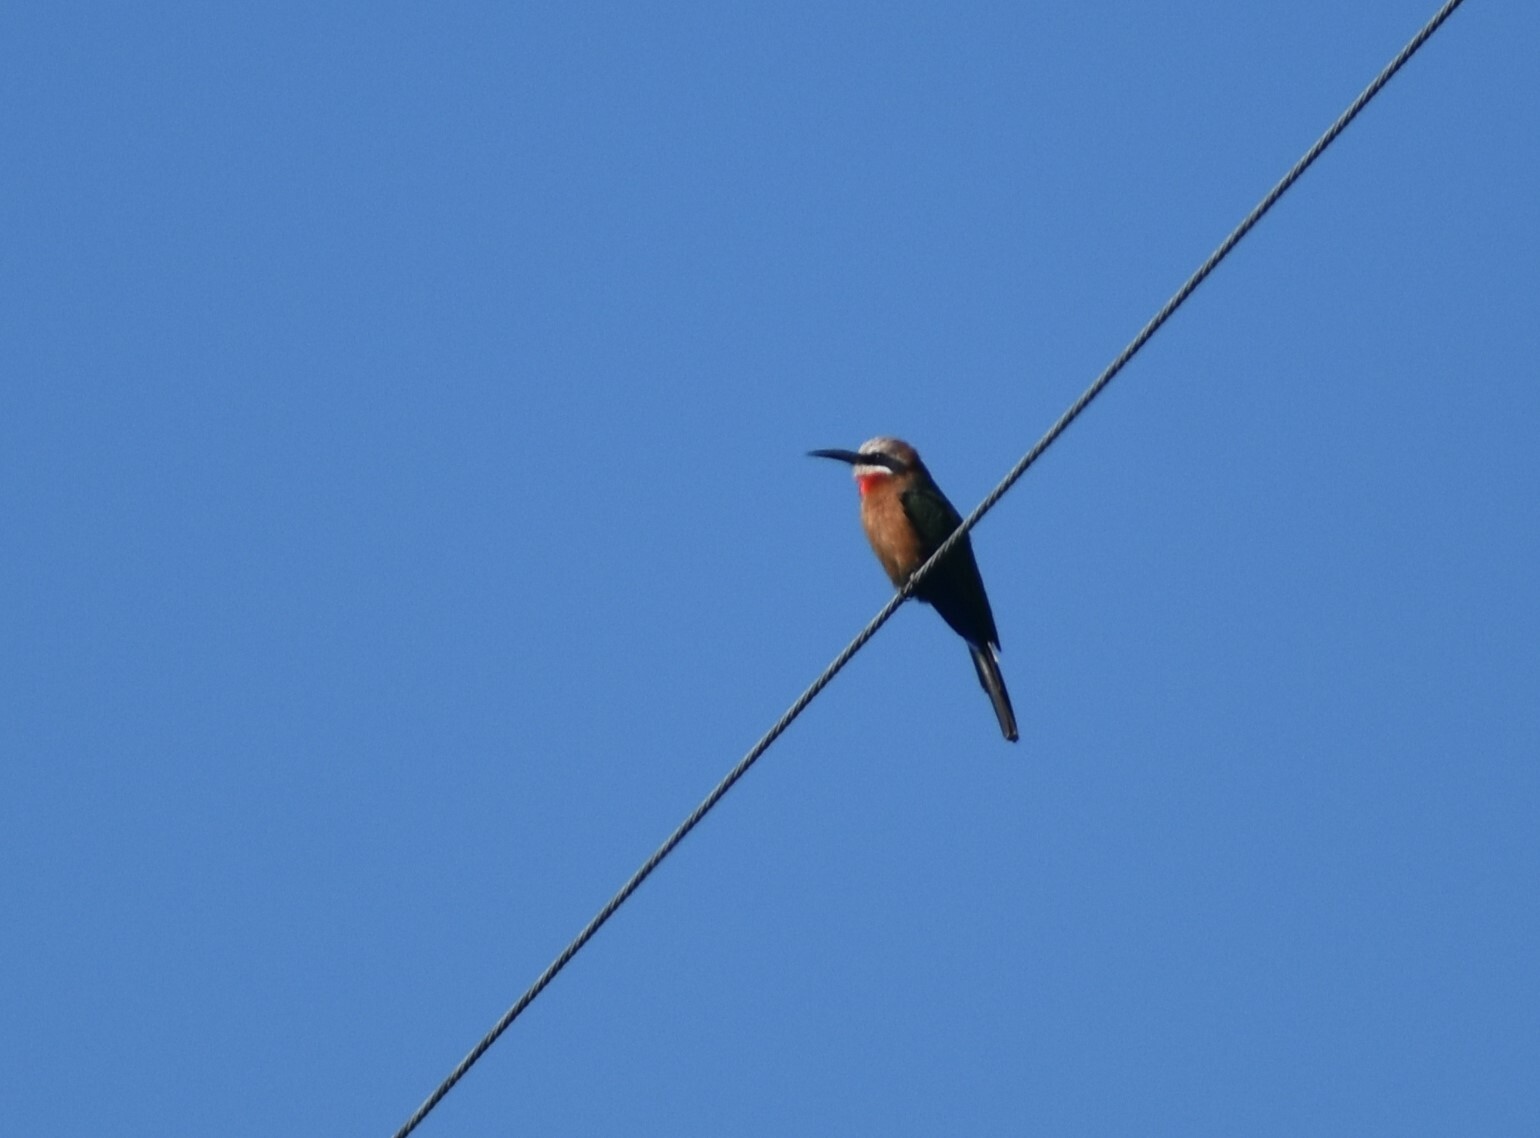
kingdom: Animalia
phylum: Chordata
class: Aves
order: Coraciiformes
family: Meropidae
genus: Merops
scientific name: Merops bullockoides
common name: White-fronted bee-eater
